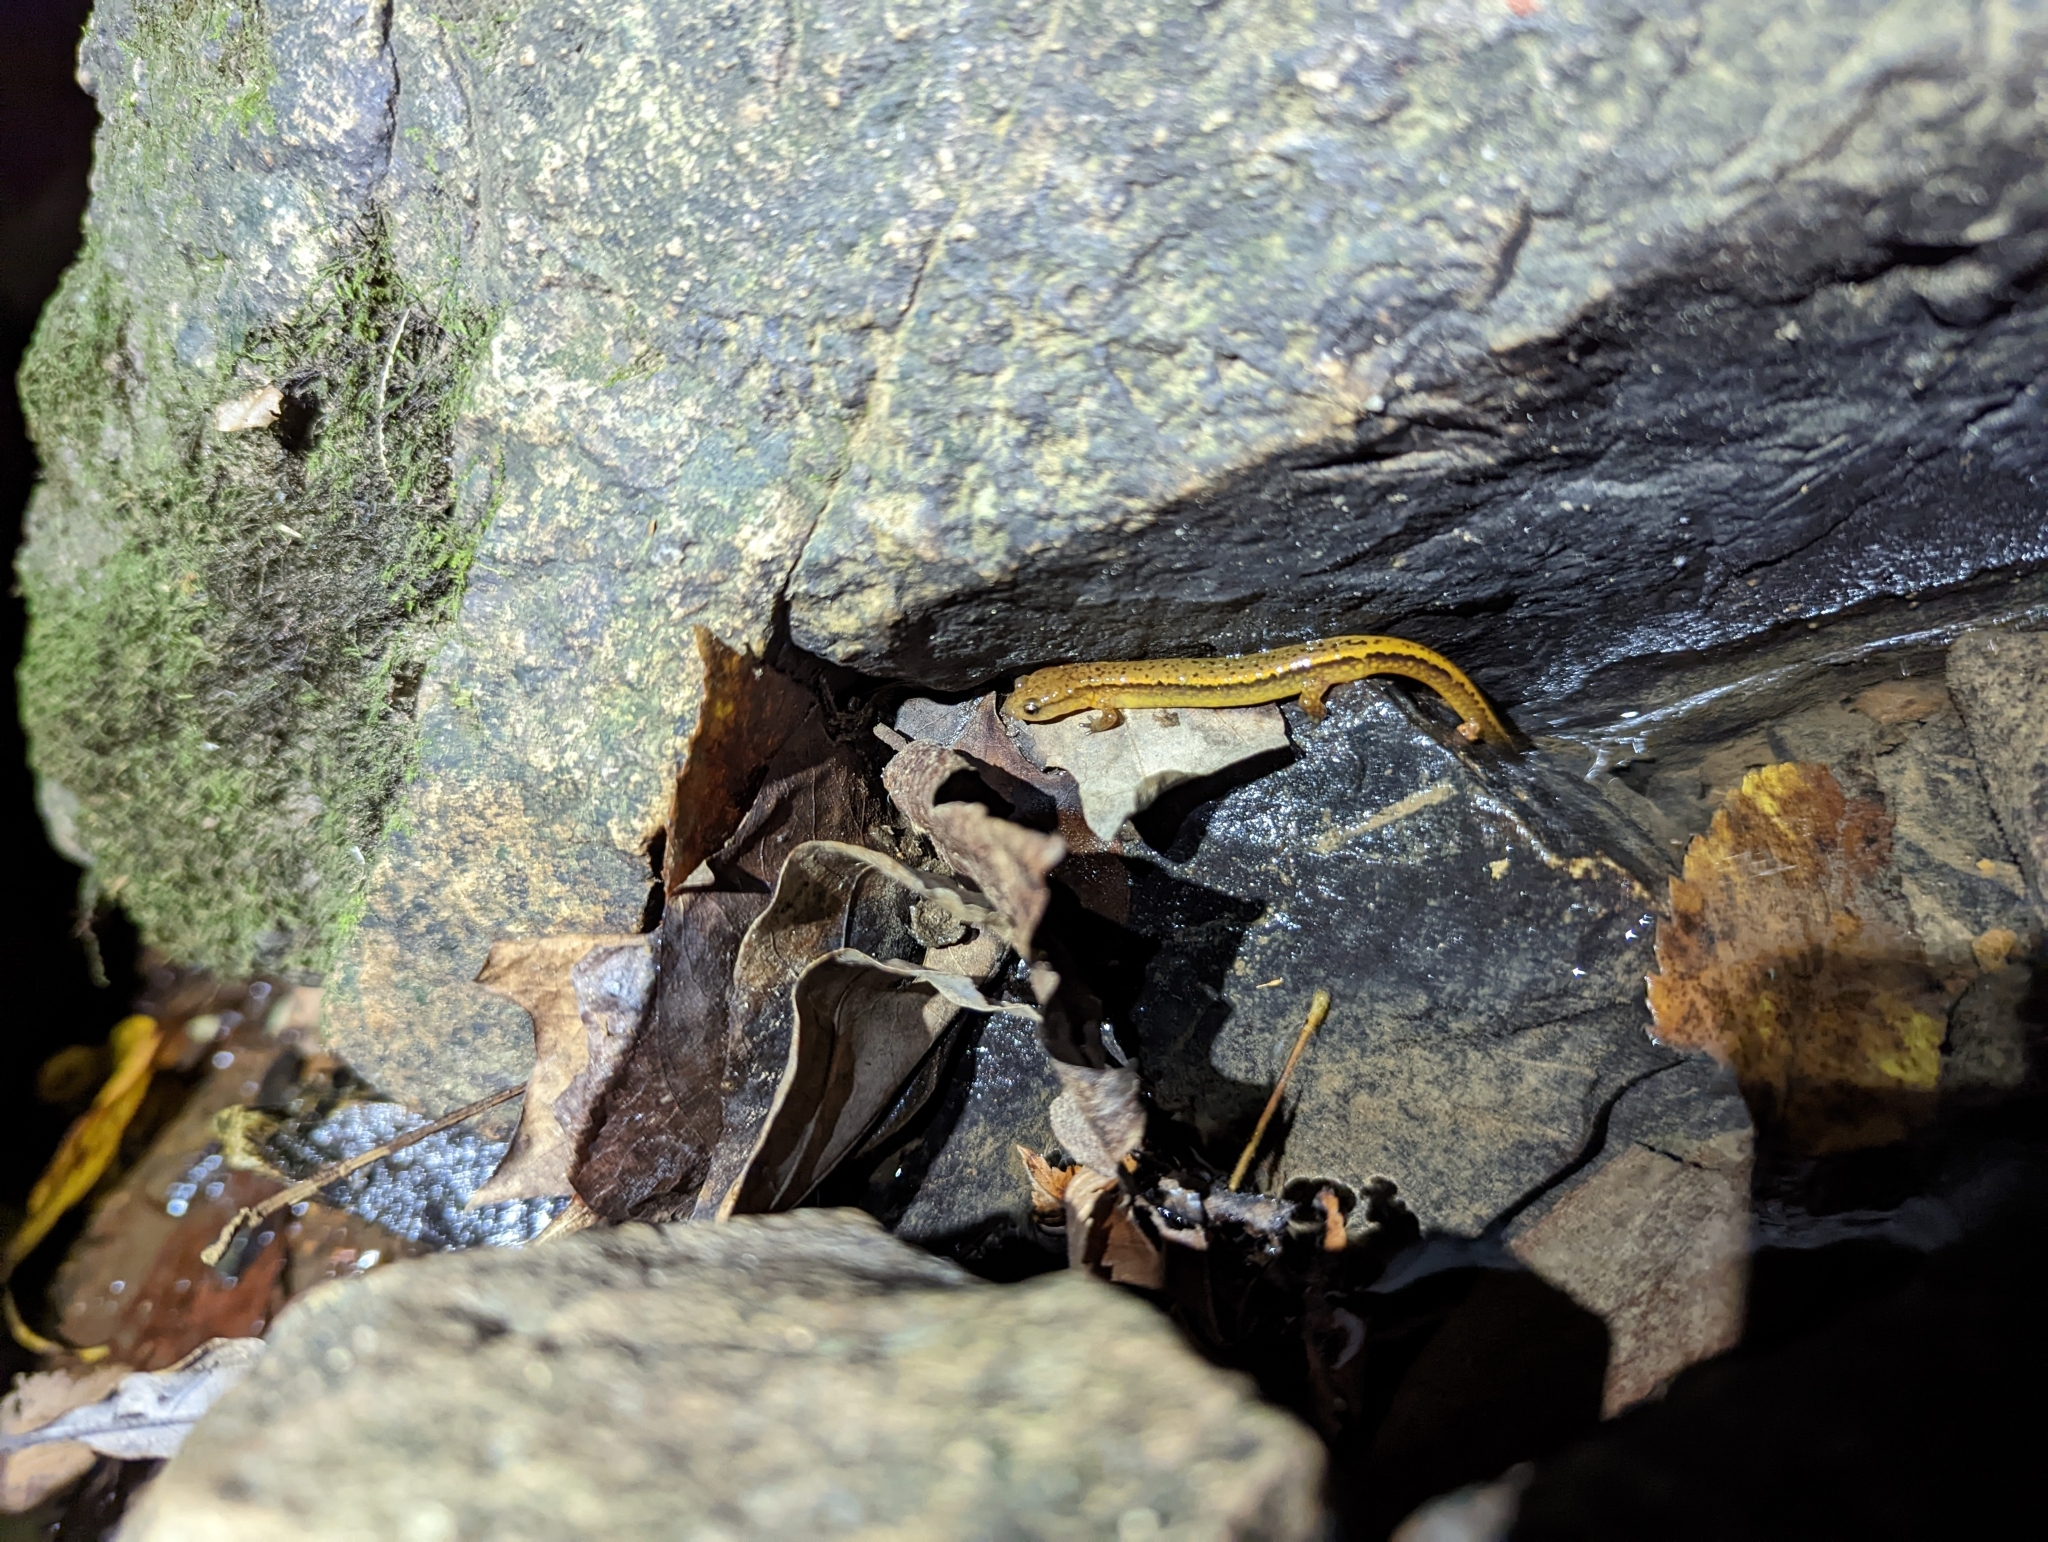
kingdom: Animalia
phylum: Chordata
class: Amphibia
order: Caudata
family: Plethodontidae
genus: Eurycea
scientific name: Eurycea cirrigera
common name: Southern two-lined salamander
